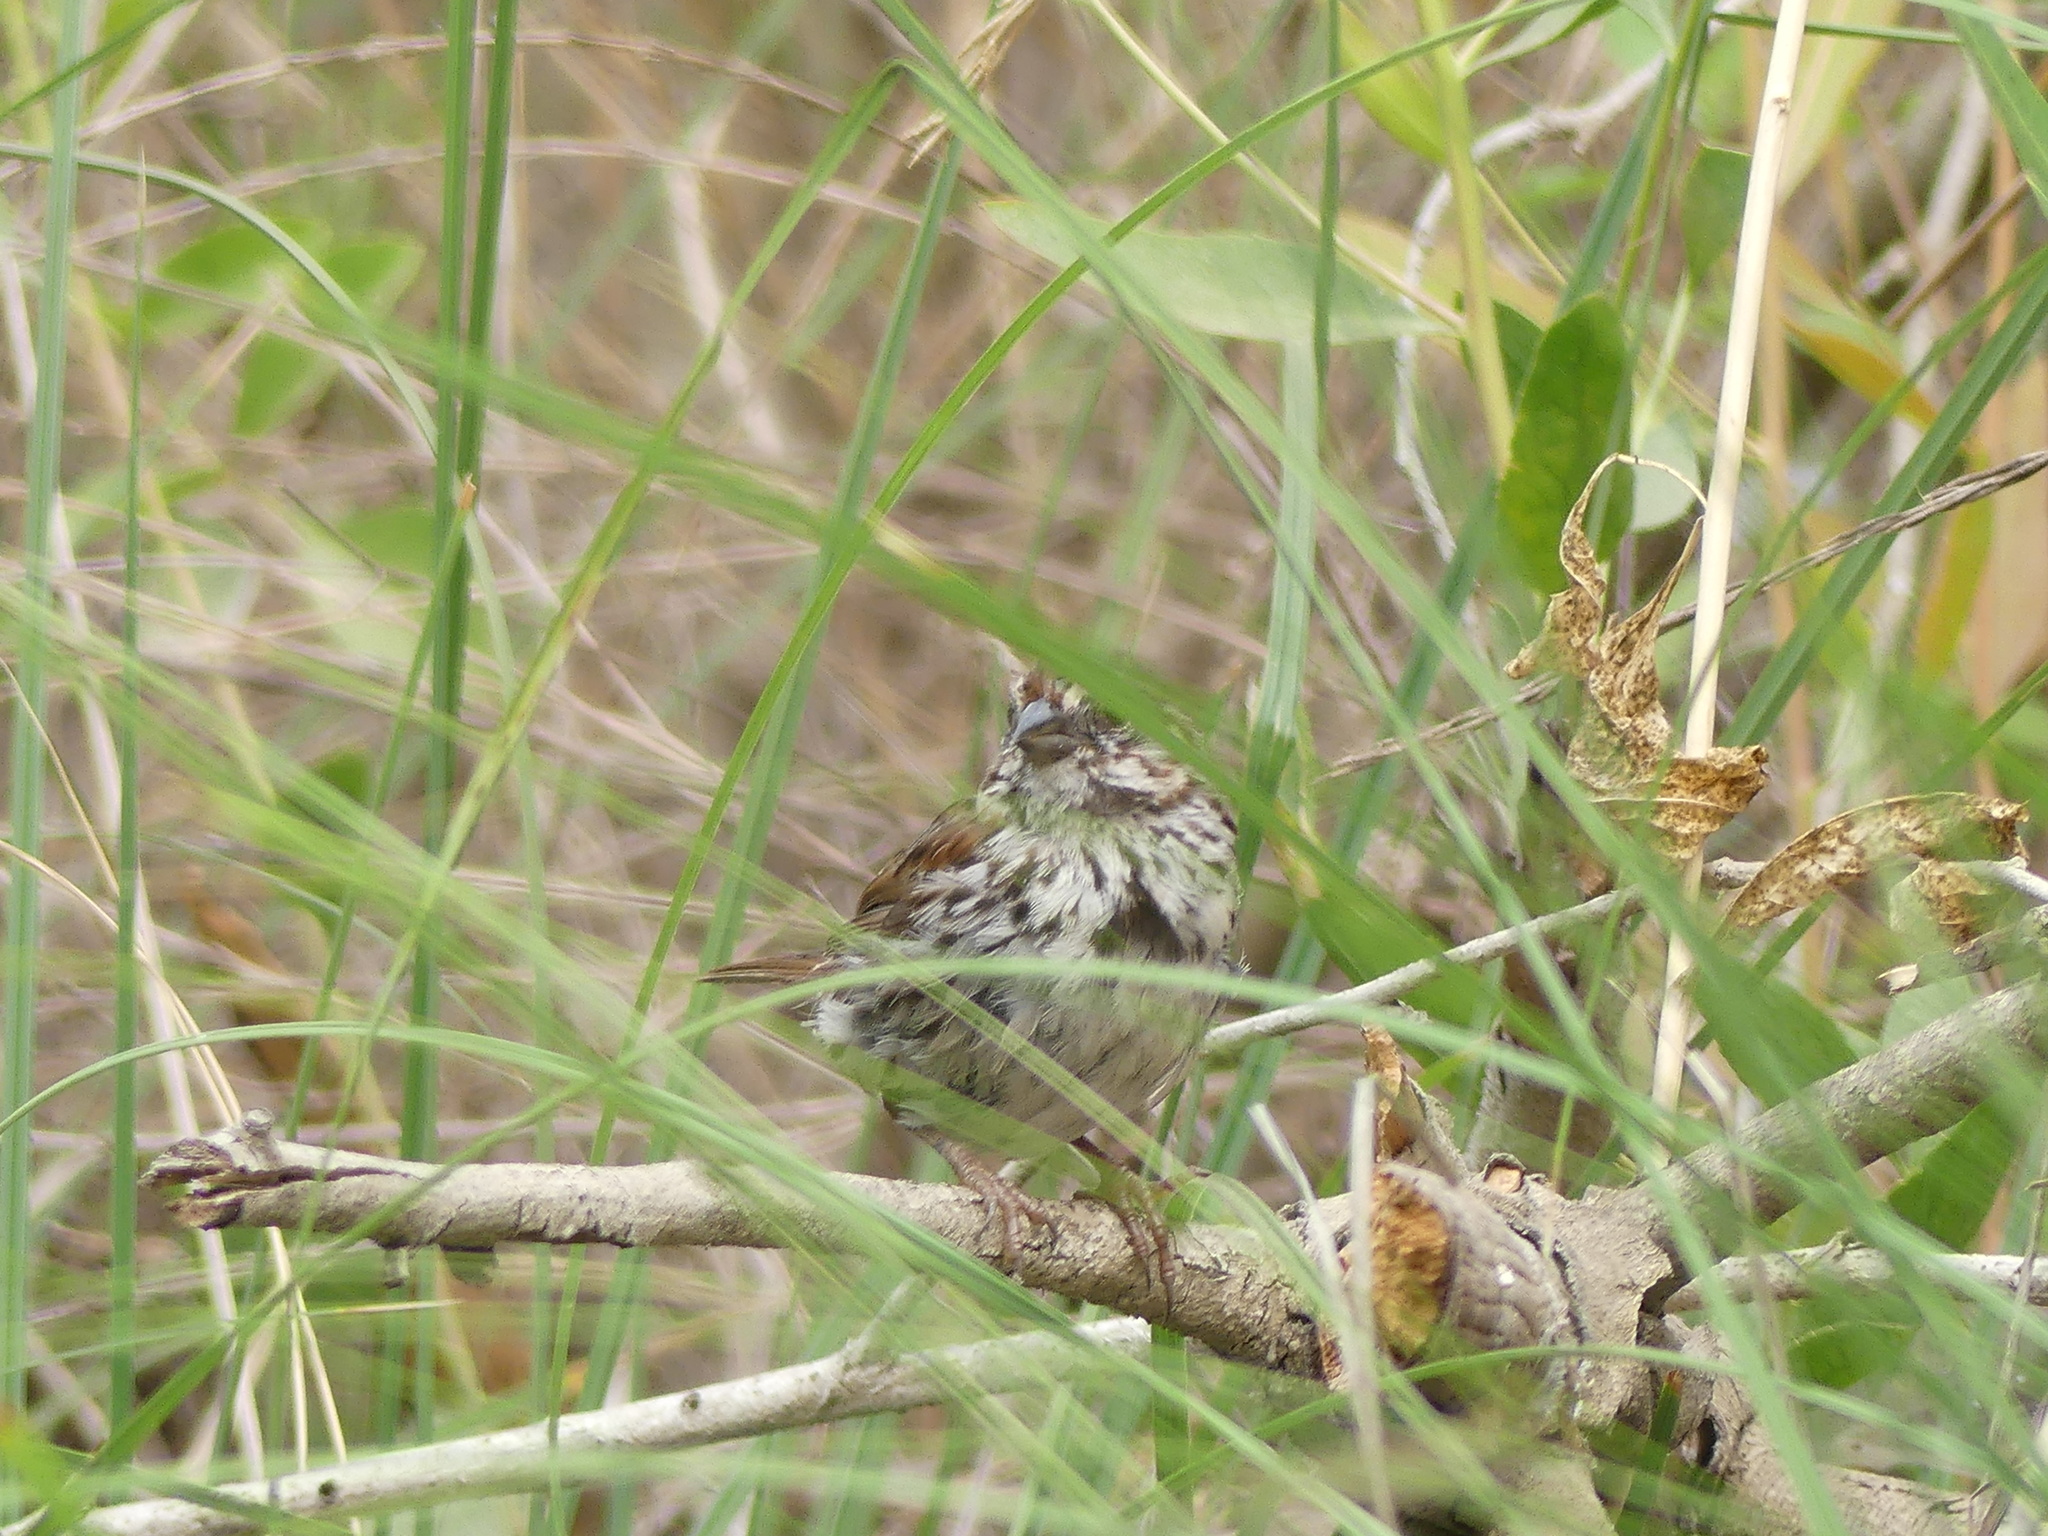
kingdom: Animalia
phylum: Chordata
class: Aves
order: Passeriformes
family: Passerellidae
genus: Melospiza
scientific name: Melospiza melodia
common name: Song sparrow
